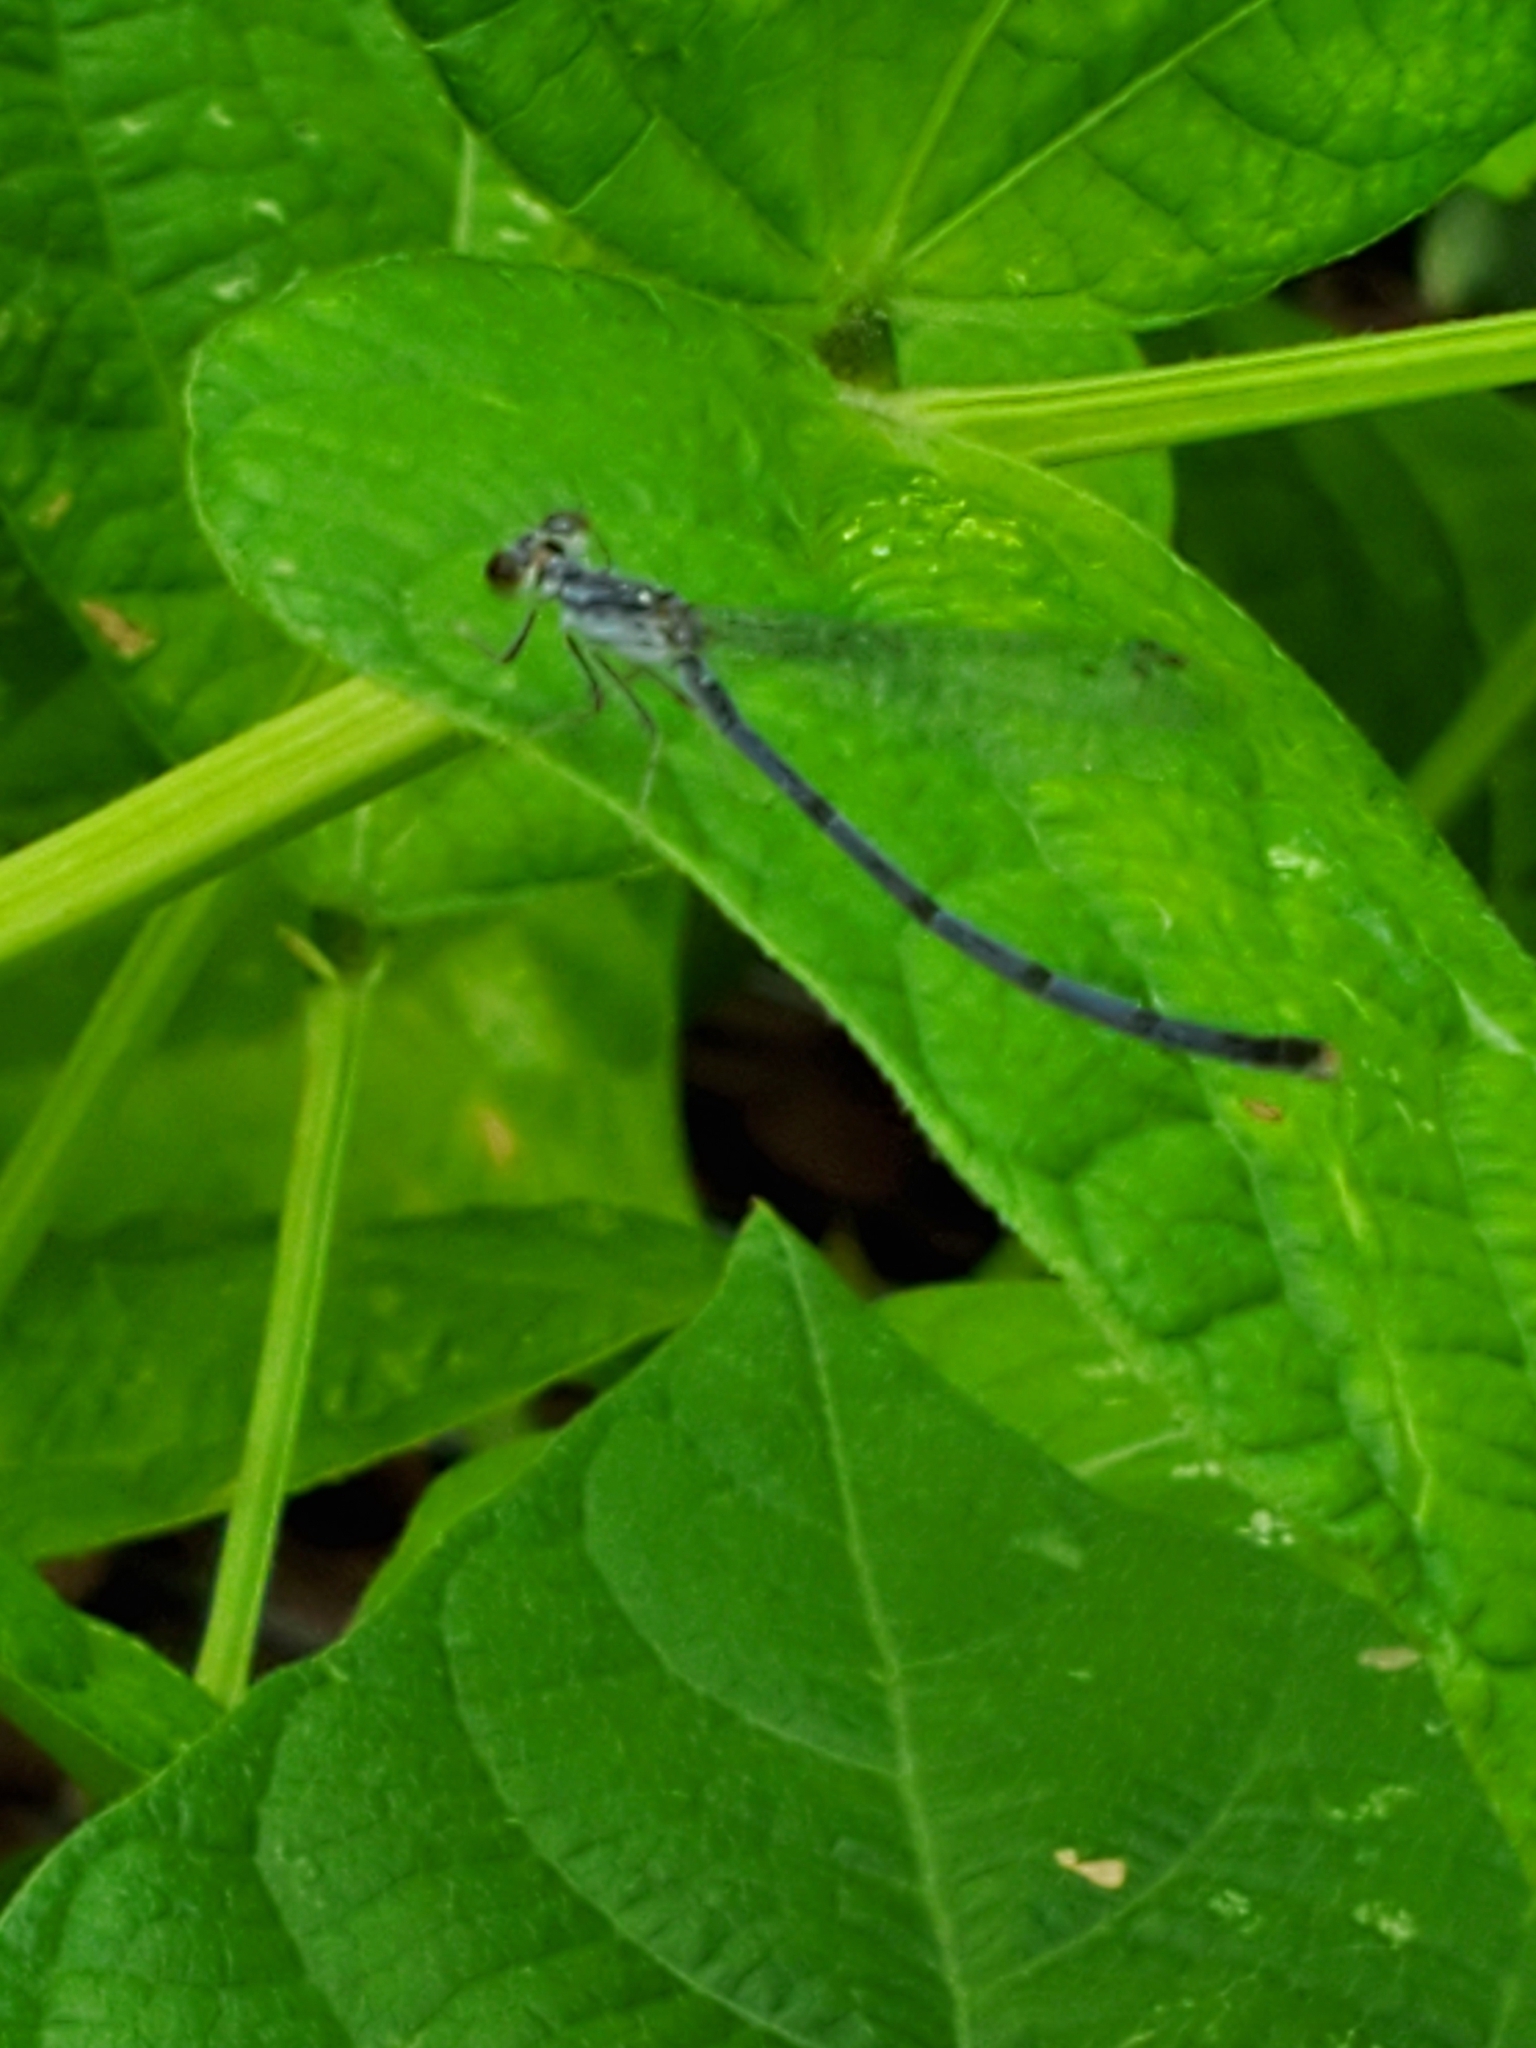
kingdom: Animalia
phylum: Arthropoda
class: Insecta
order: Odonata
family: Coenagrionidae
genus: Ischnura
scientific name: Ischnura posita
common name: Fragile forktail
